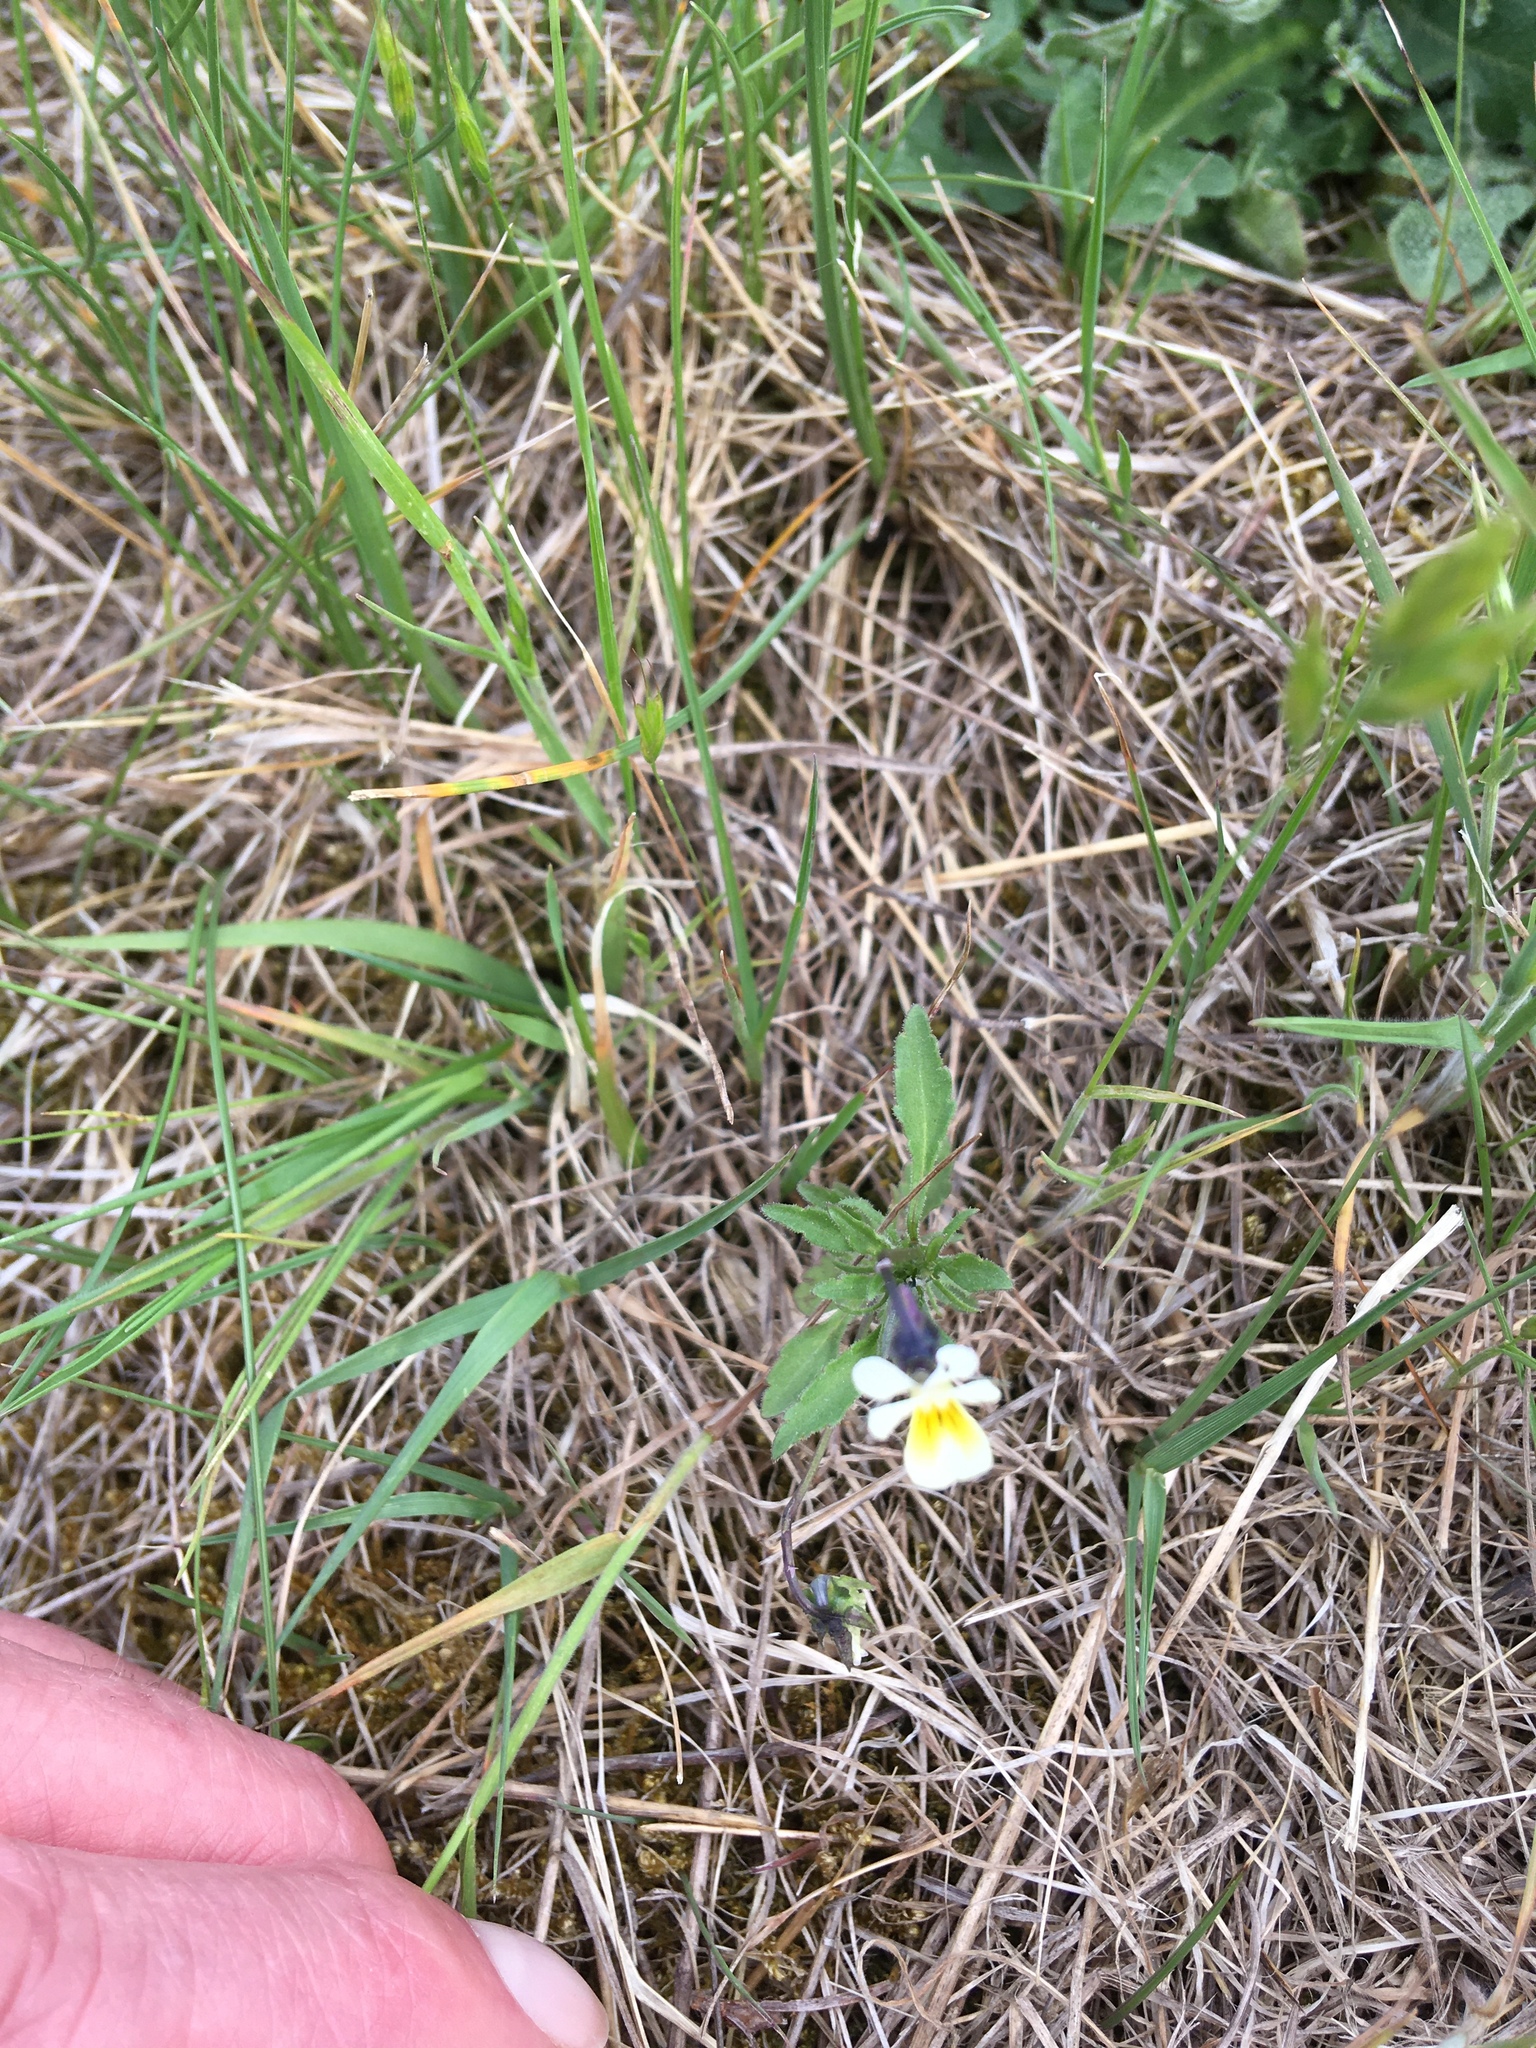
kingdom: Plantae
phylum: Tracheophyta
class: Magnoliopsida
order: Malpighiales
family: Violaceae
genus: Viola
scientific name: Viola arvensis
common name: Field pansy
